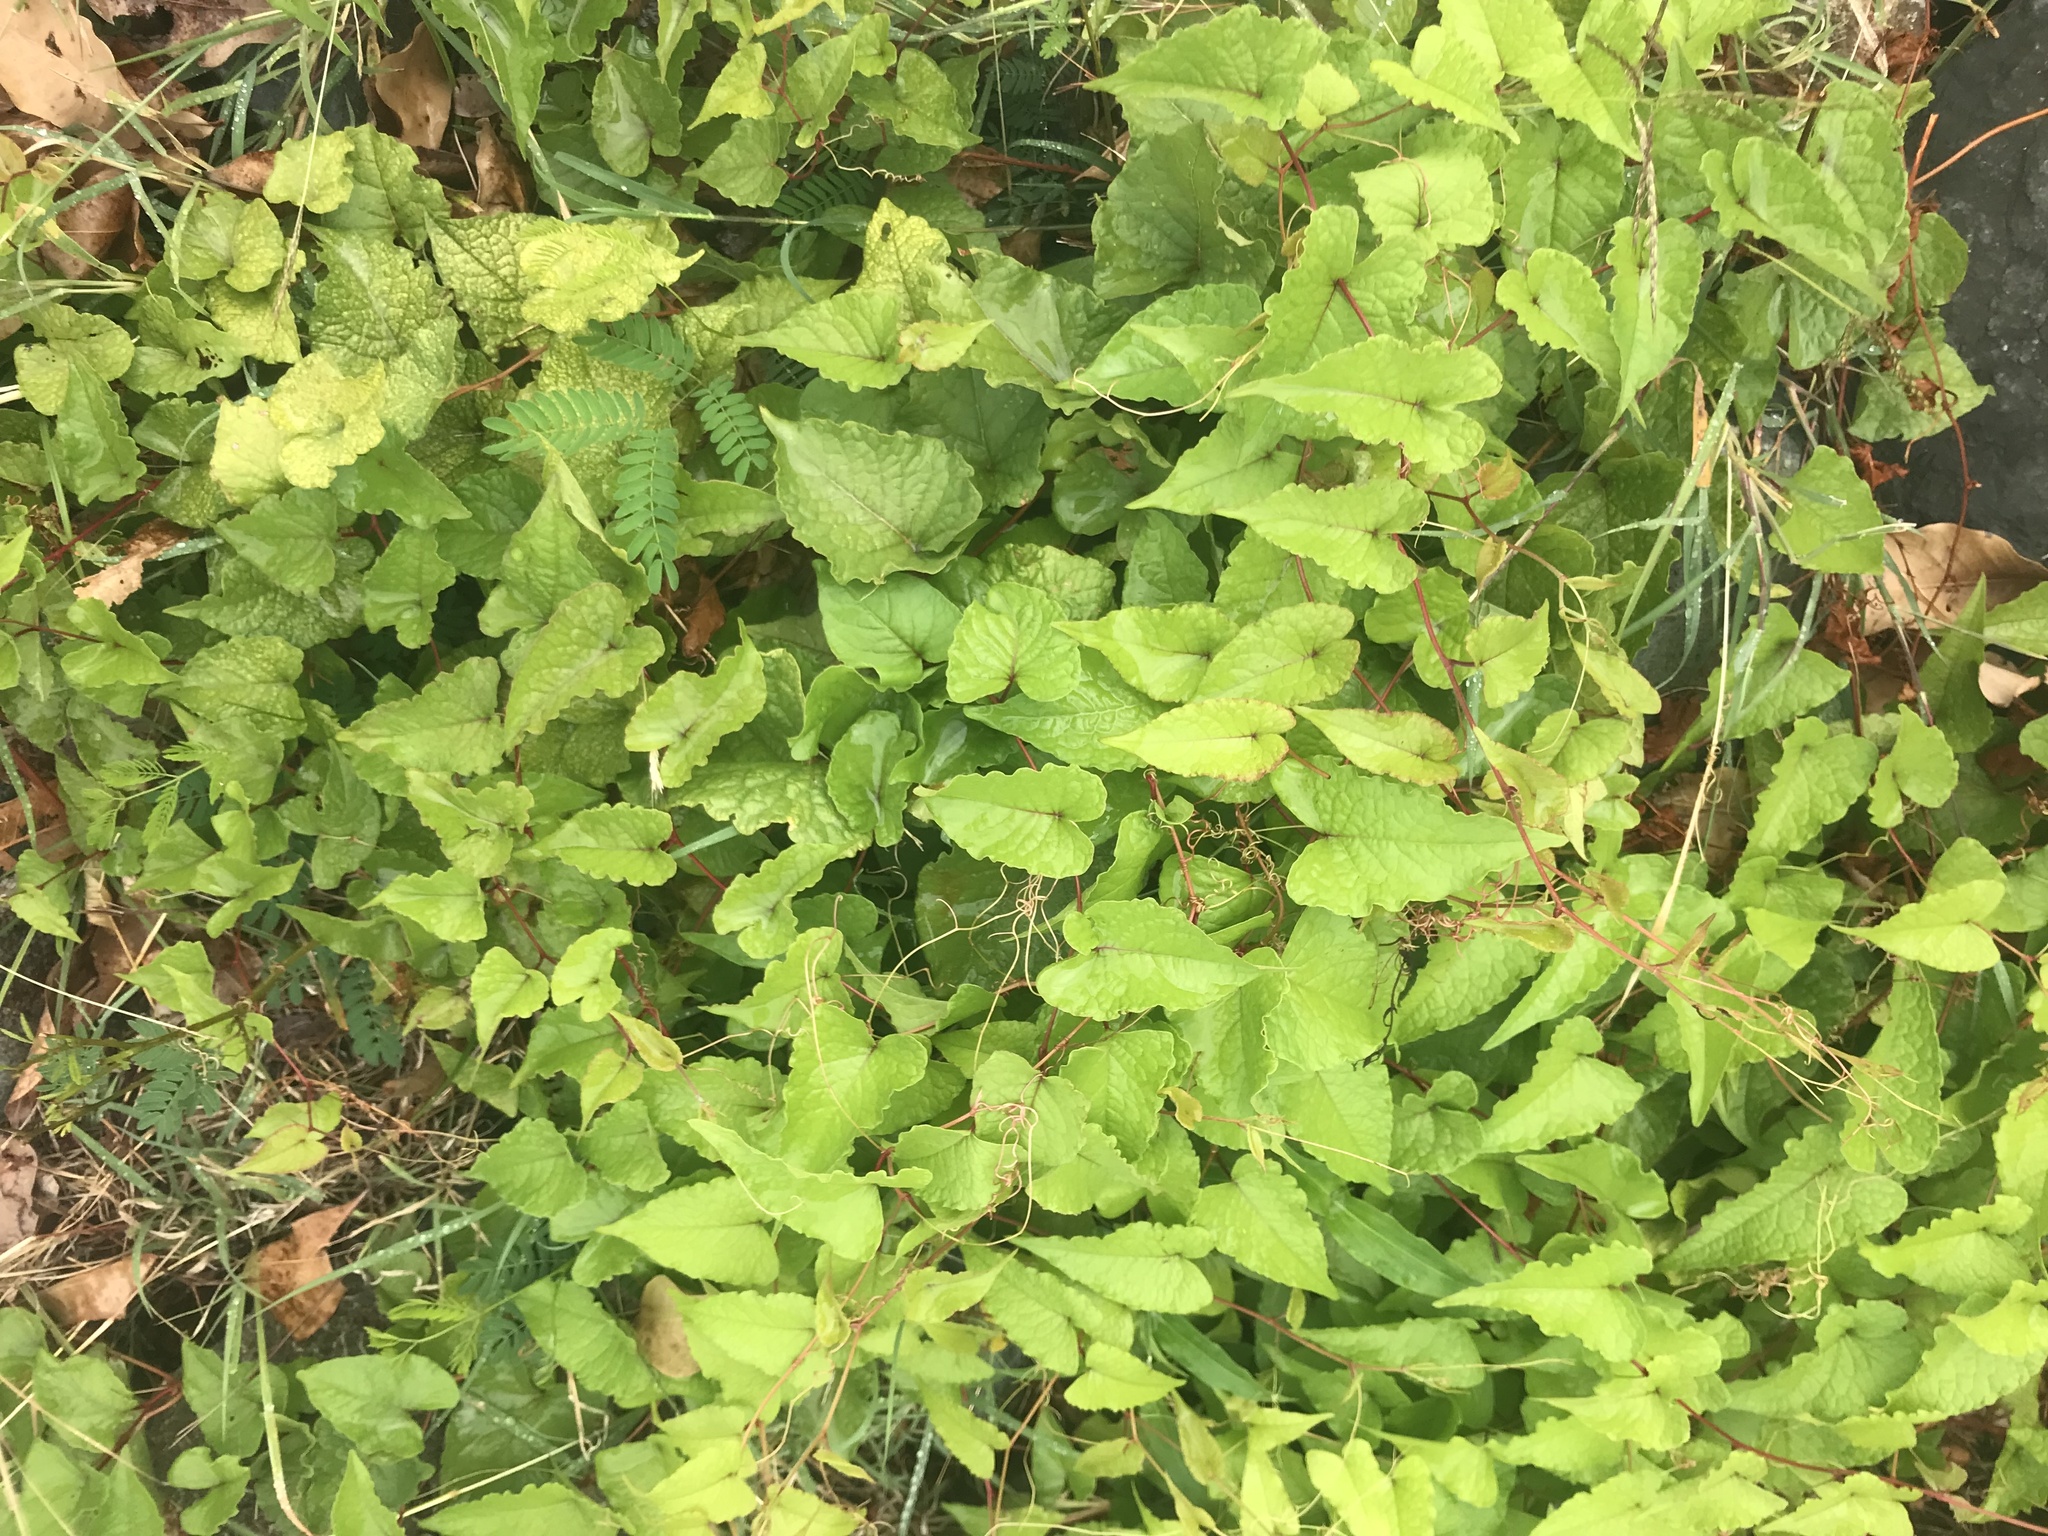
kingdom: Plantae
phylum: Tracheophyta
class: Magnoliopsida
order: Caryophyllales
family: Polygonaceae
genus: Antigonon
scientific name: Antigonon leptopus
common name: Coral vine
